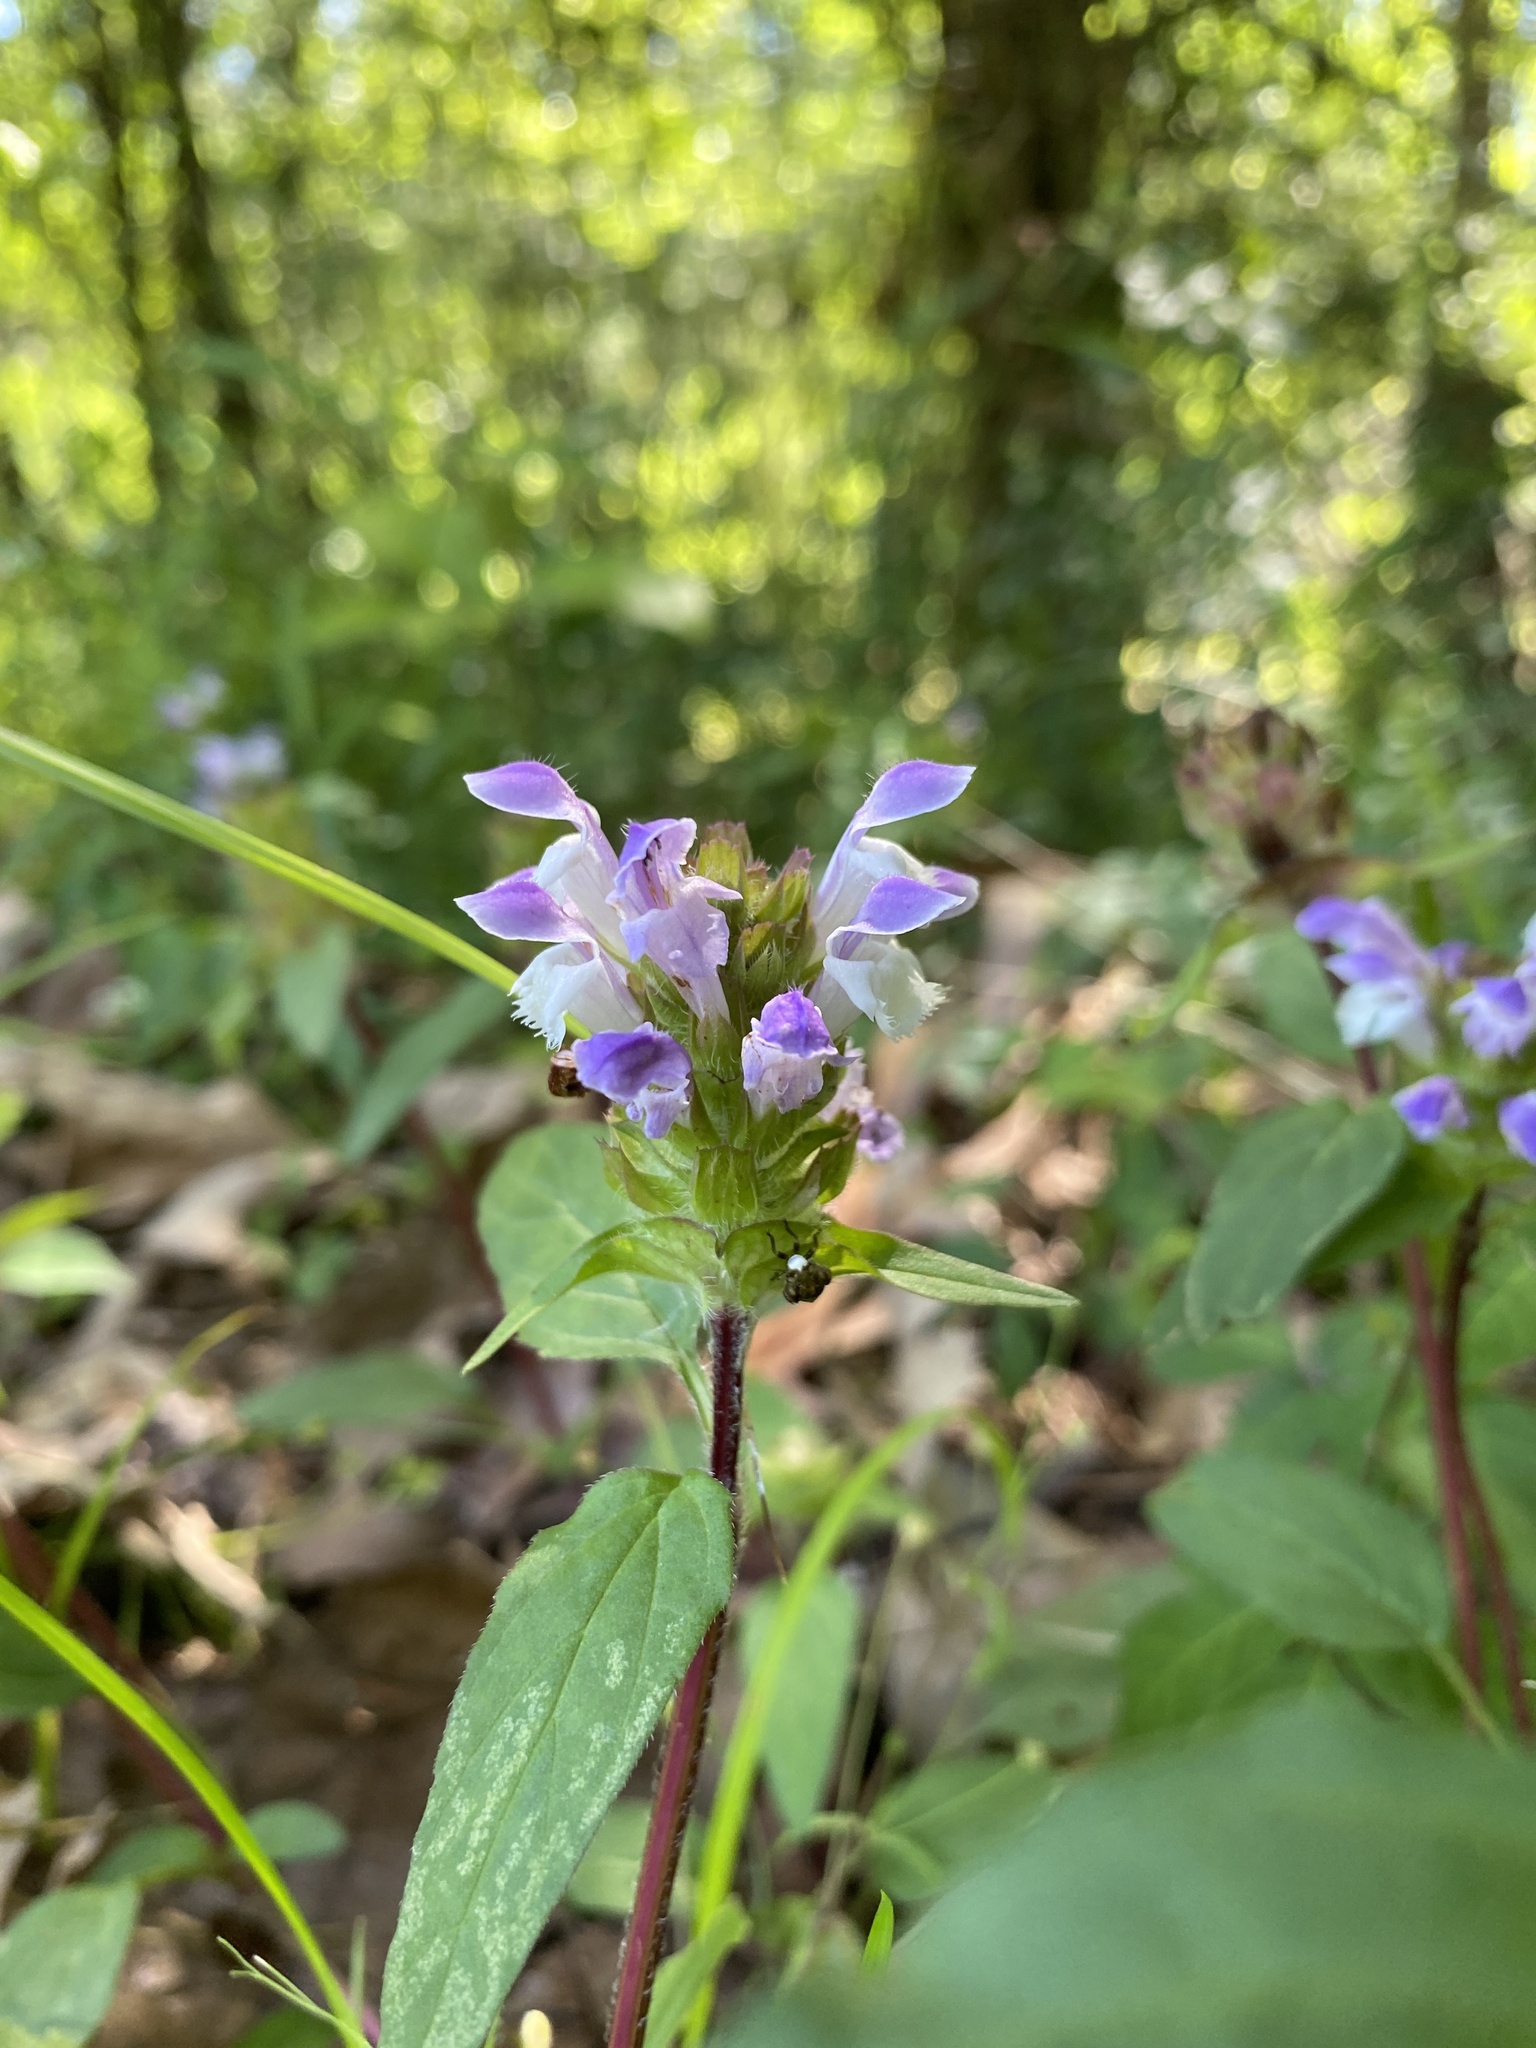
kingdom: Plantae
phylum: Tracheophyta
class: Magnoliopsida
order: Lamiales
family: Lamiaceae
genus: Prunella
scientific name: Prunella vulgaris
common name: Heal-all
